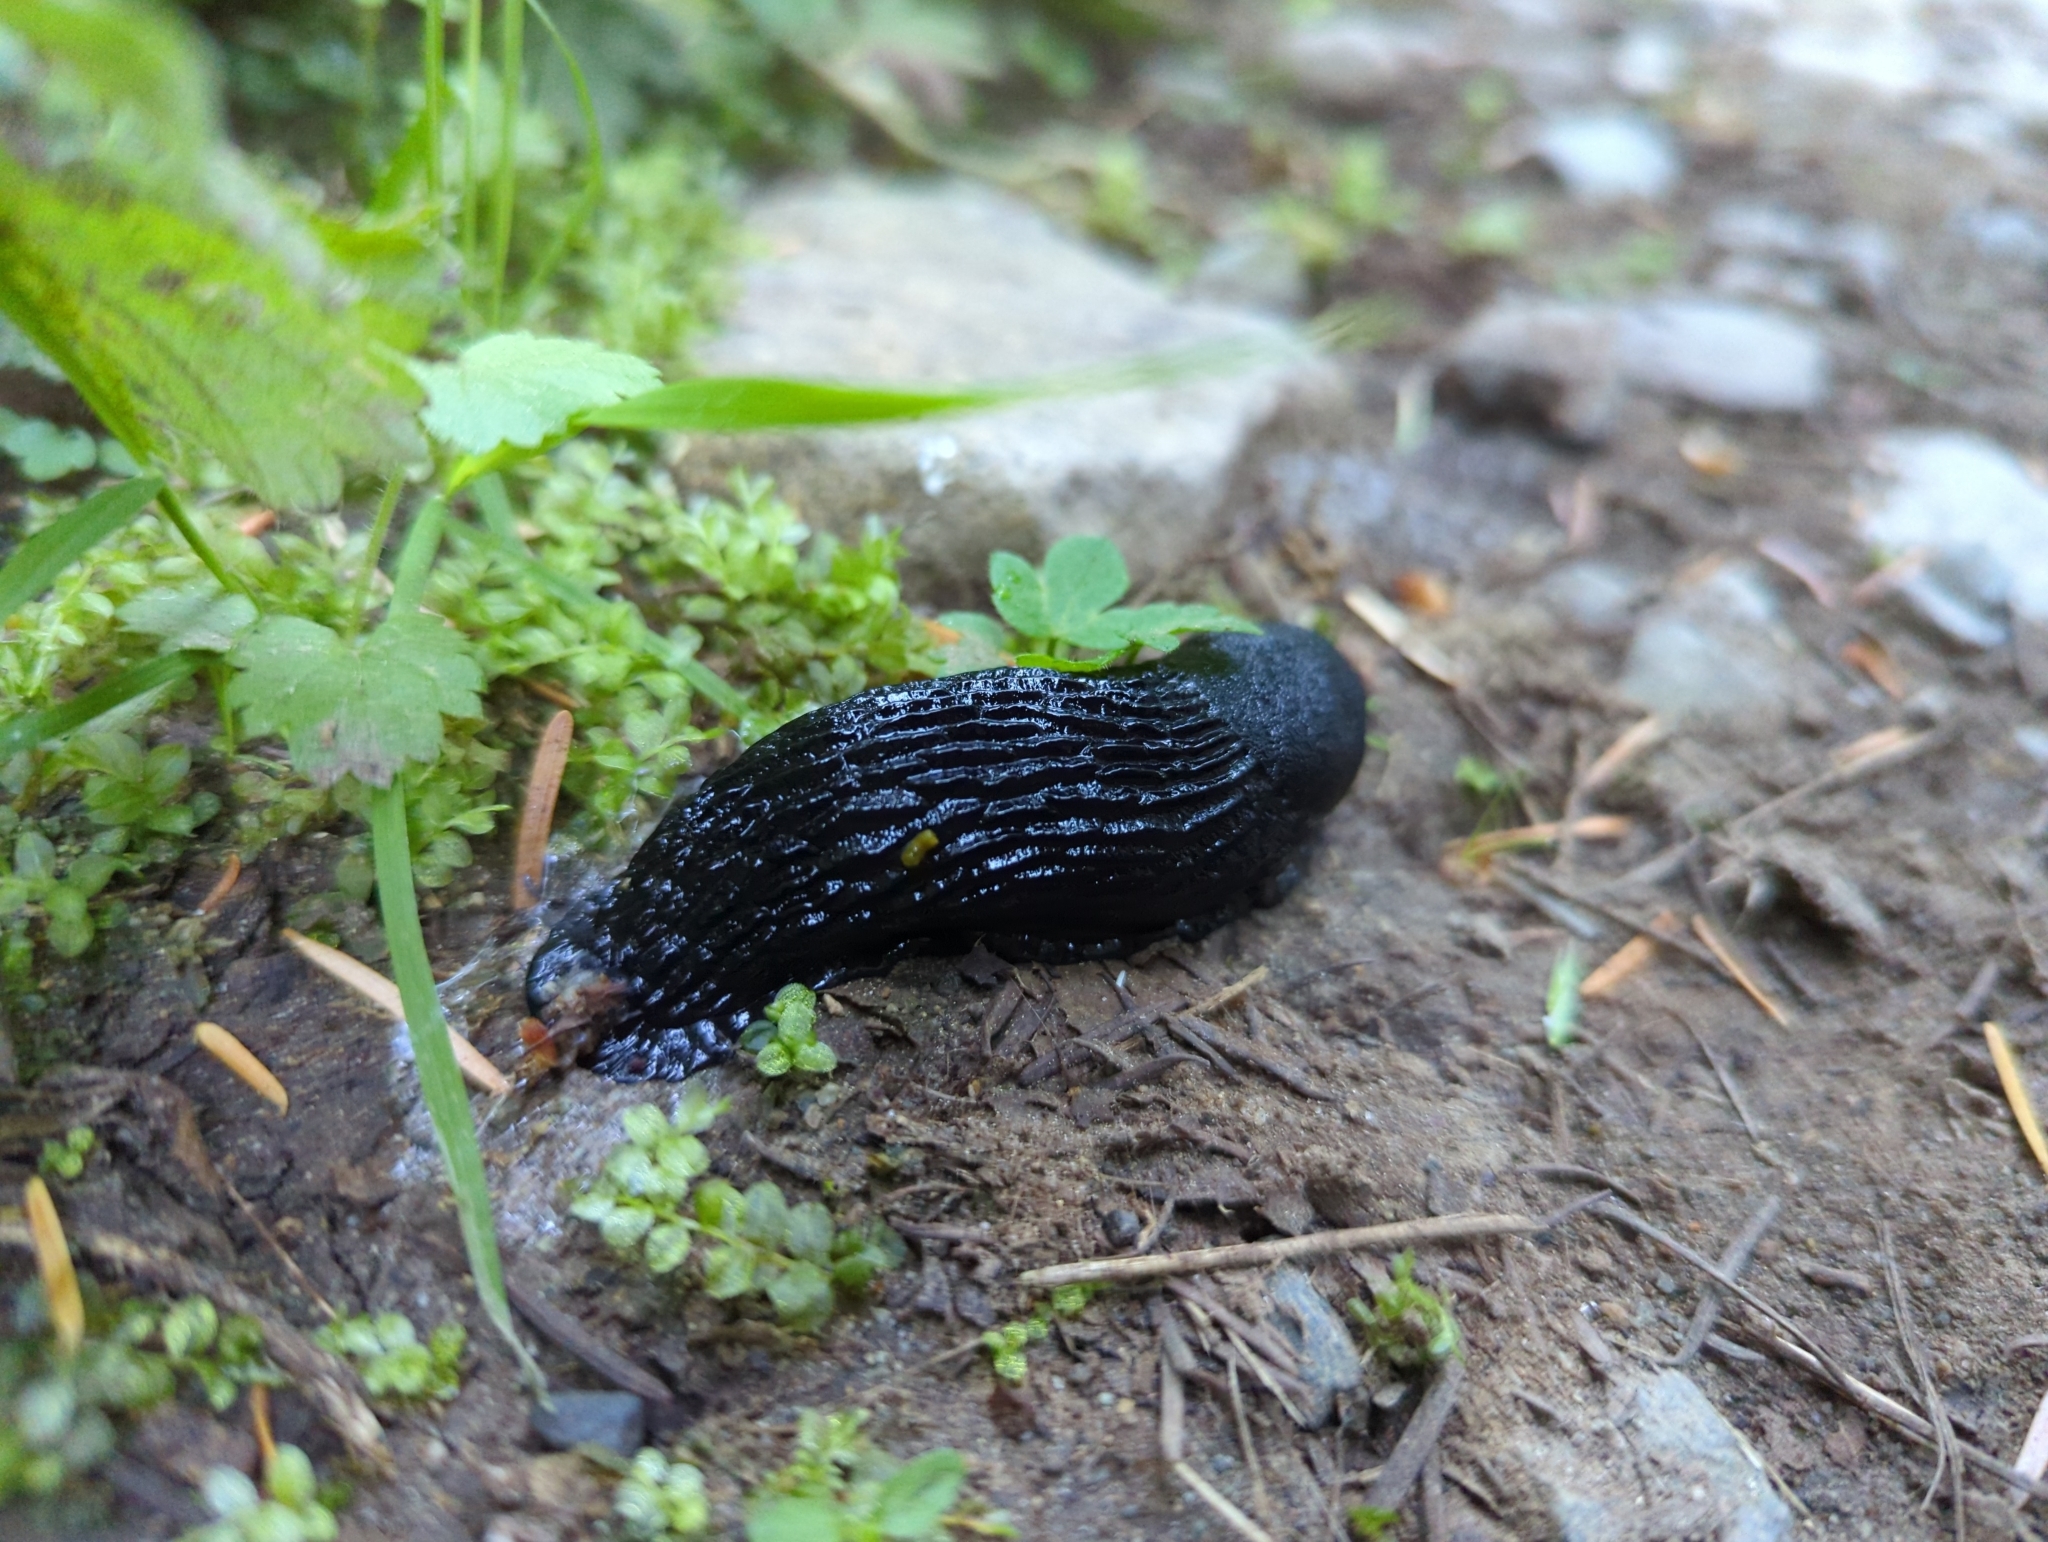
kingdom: Animalia
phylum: Mollusca
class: Gastropoda
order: Stylommatophora
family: Arionidae
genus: Arion
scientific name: Arion
